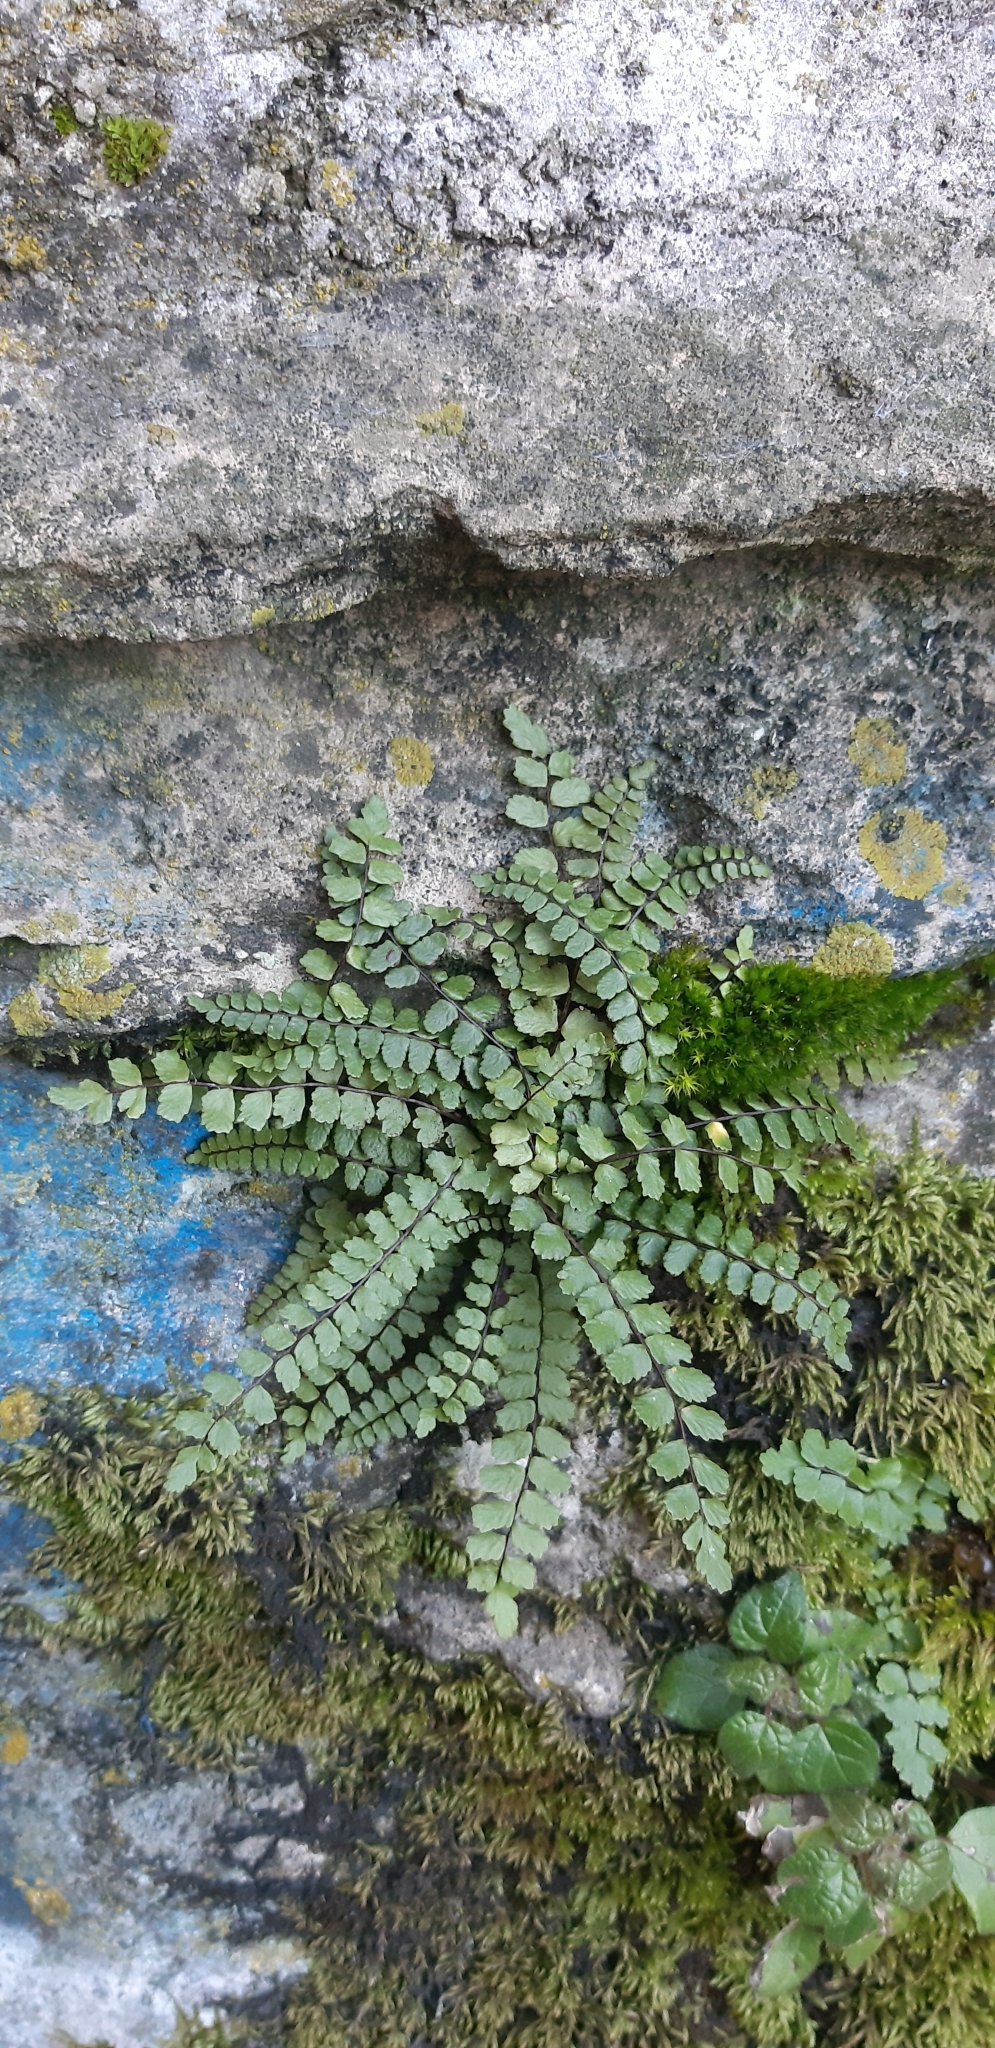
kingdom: Plantae
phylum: Tracheophyta
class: Polypodiopsida
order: Polypodiales
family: Aspleniaceae
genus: Asplenium
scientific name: Asplenium trichomanes
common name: Maidenhair spleenwort
